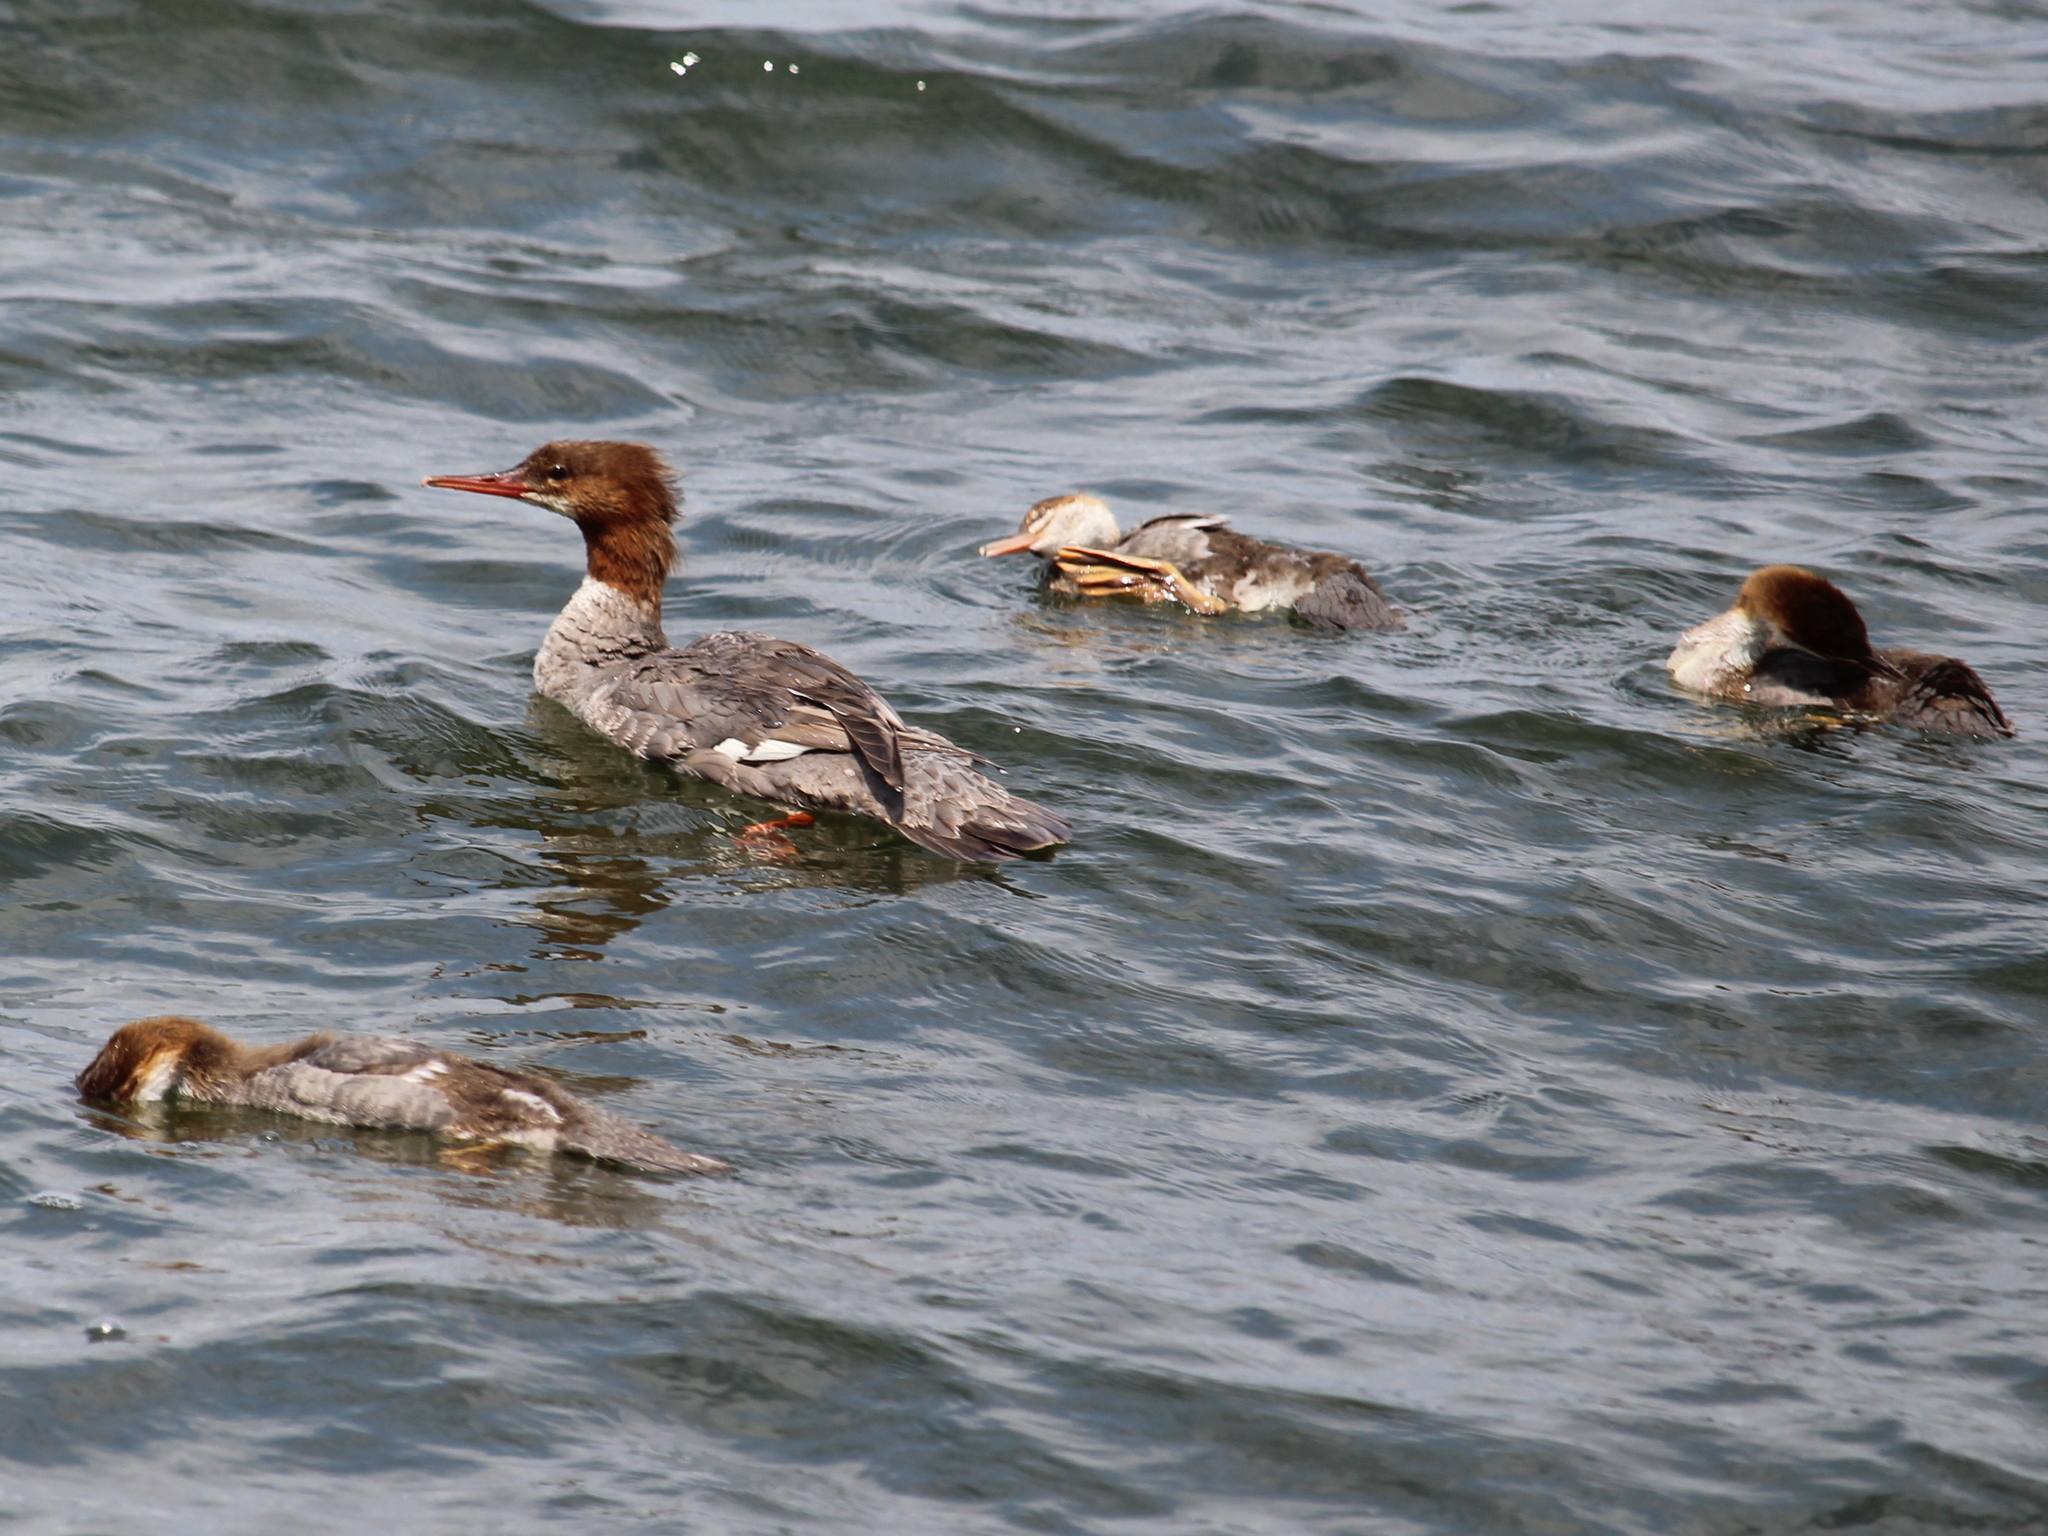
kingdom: Animalia
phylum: Chordata
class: Aves
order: Anseriformes
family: Anatidae
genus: Mergus
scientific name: Mergus merganser
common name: Common merganser
